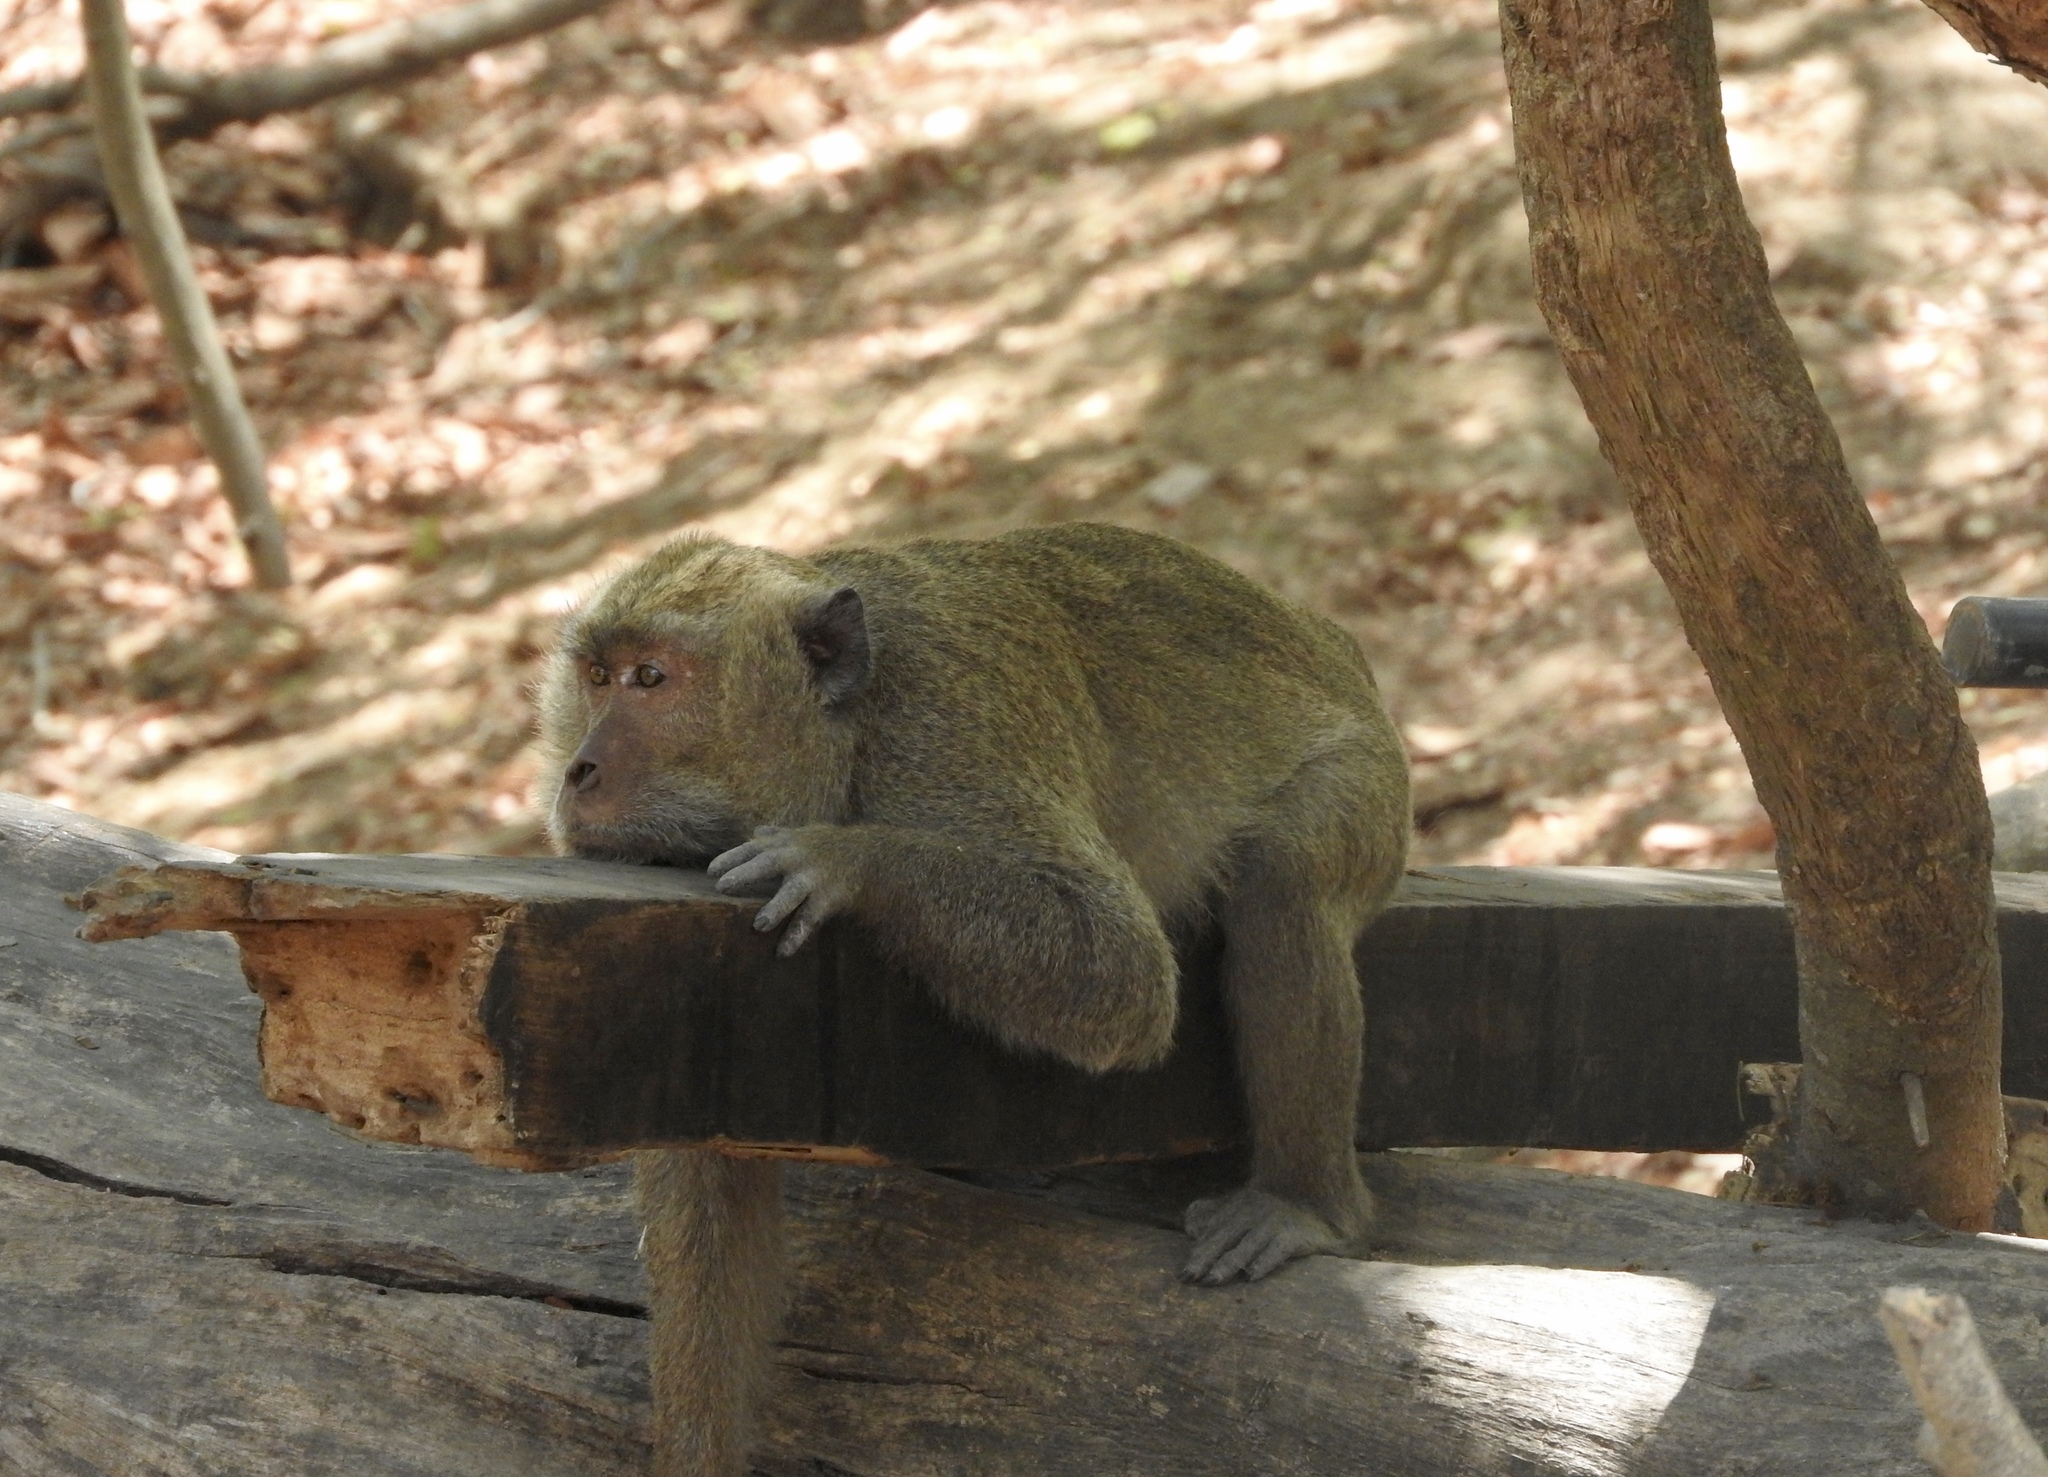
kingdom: Animalia
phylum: Chordata
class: Mammalia
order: Primates
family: Cercopithecidae
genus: Macaca
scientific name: Macaca fascicularis
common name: Crab-eating macaque
